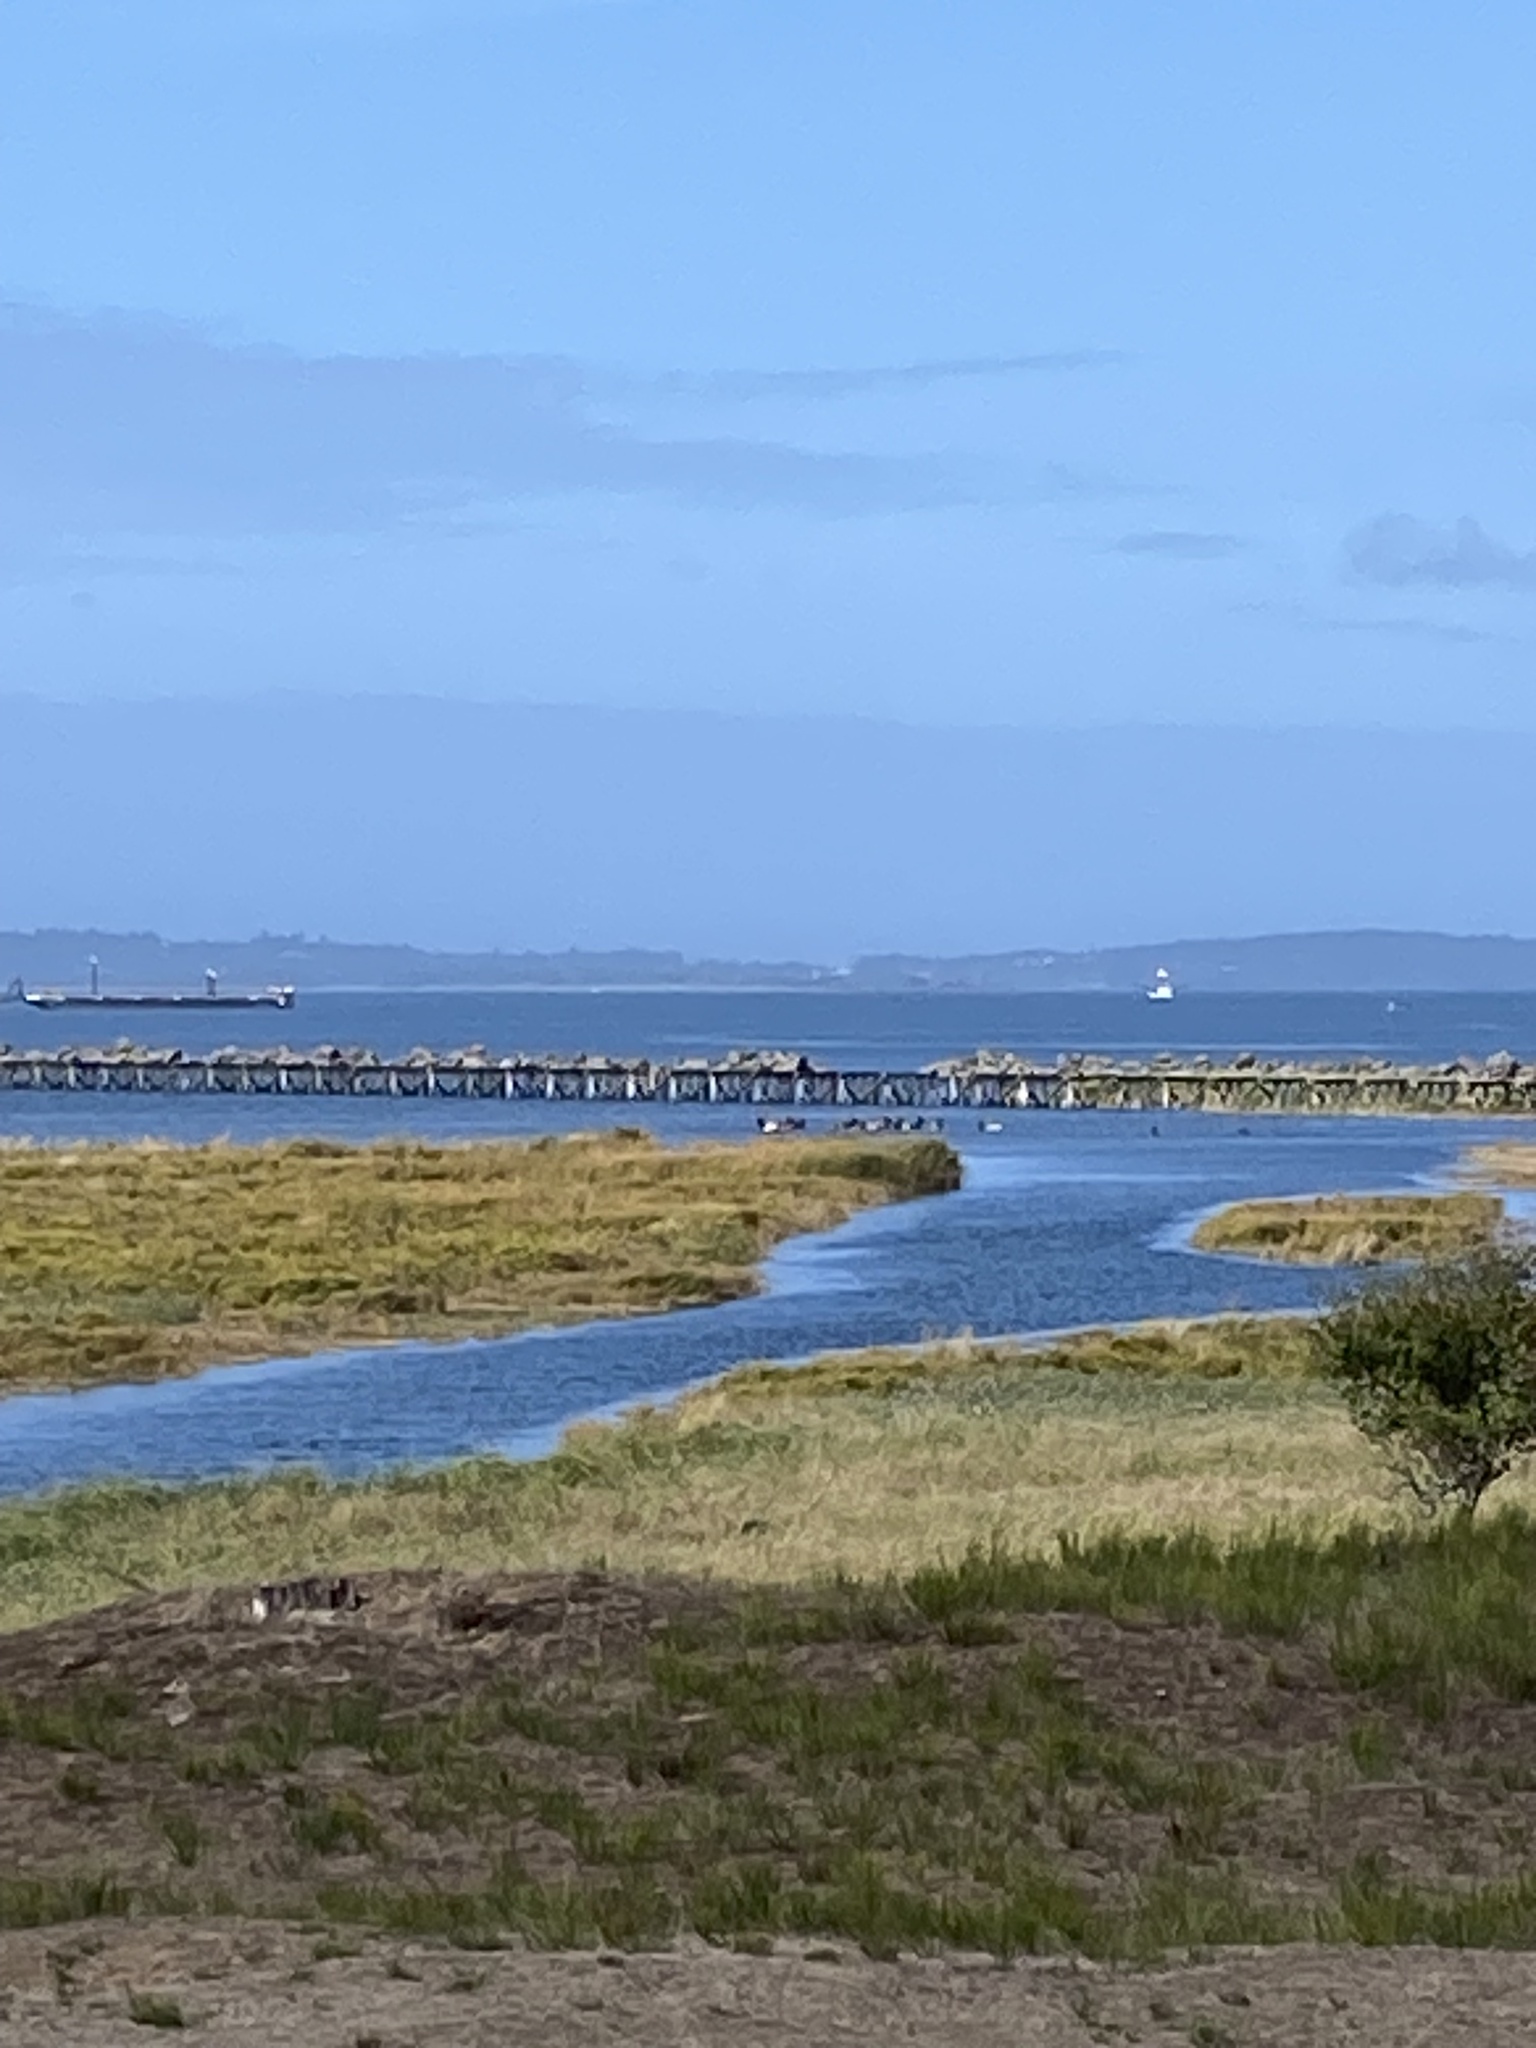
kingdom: Animalia
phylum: Chordata
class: Mammalia
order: Artiodactyla
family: Cervidae
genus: Cervus
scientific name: Cervus elaphus
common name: Red deer
